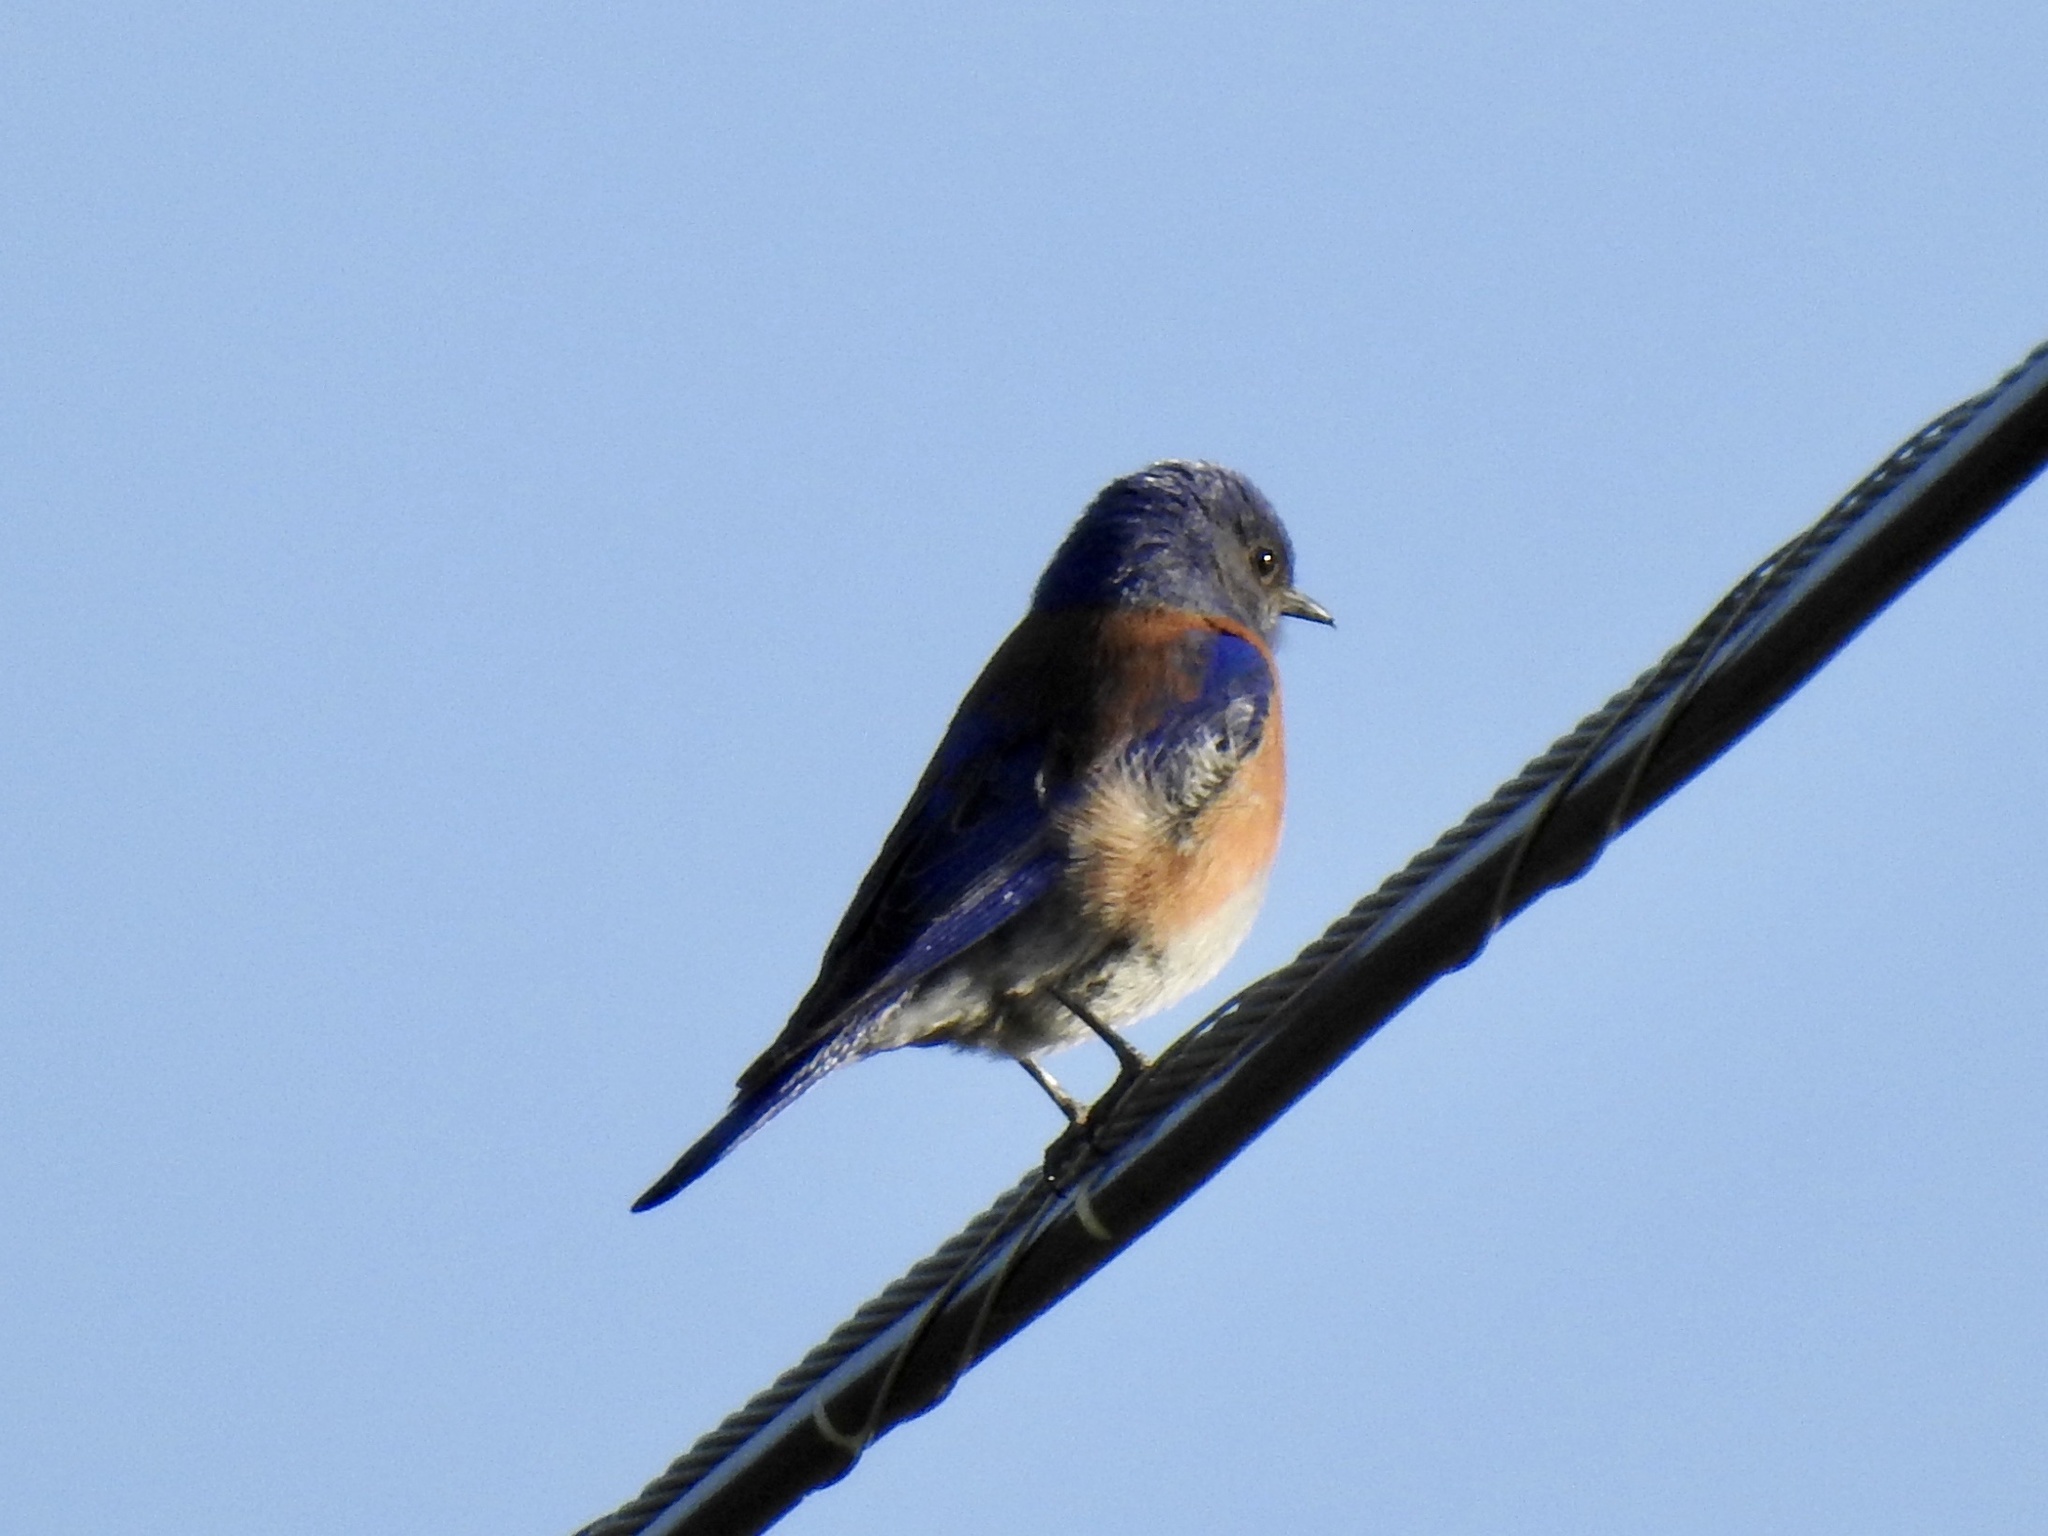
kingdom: Animalia
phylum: Chordata
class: Aves
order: Passeriformes
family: Turdidae
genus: Sialia
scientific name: Sialia mexicana
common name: Western bluebird
